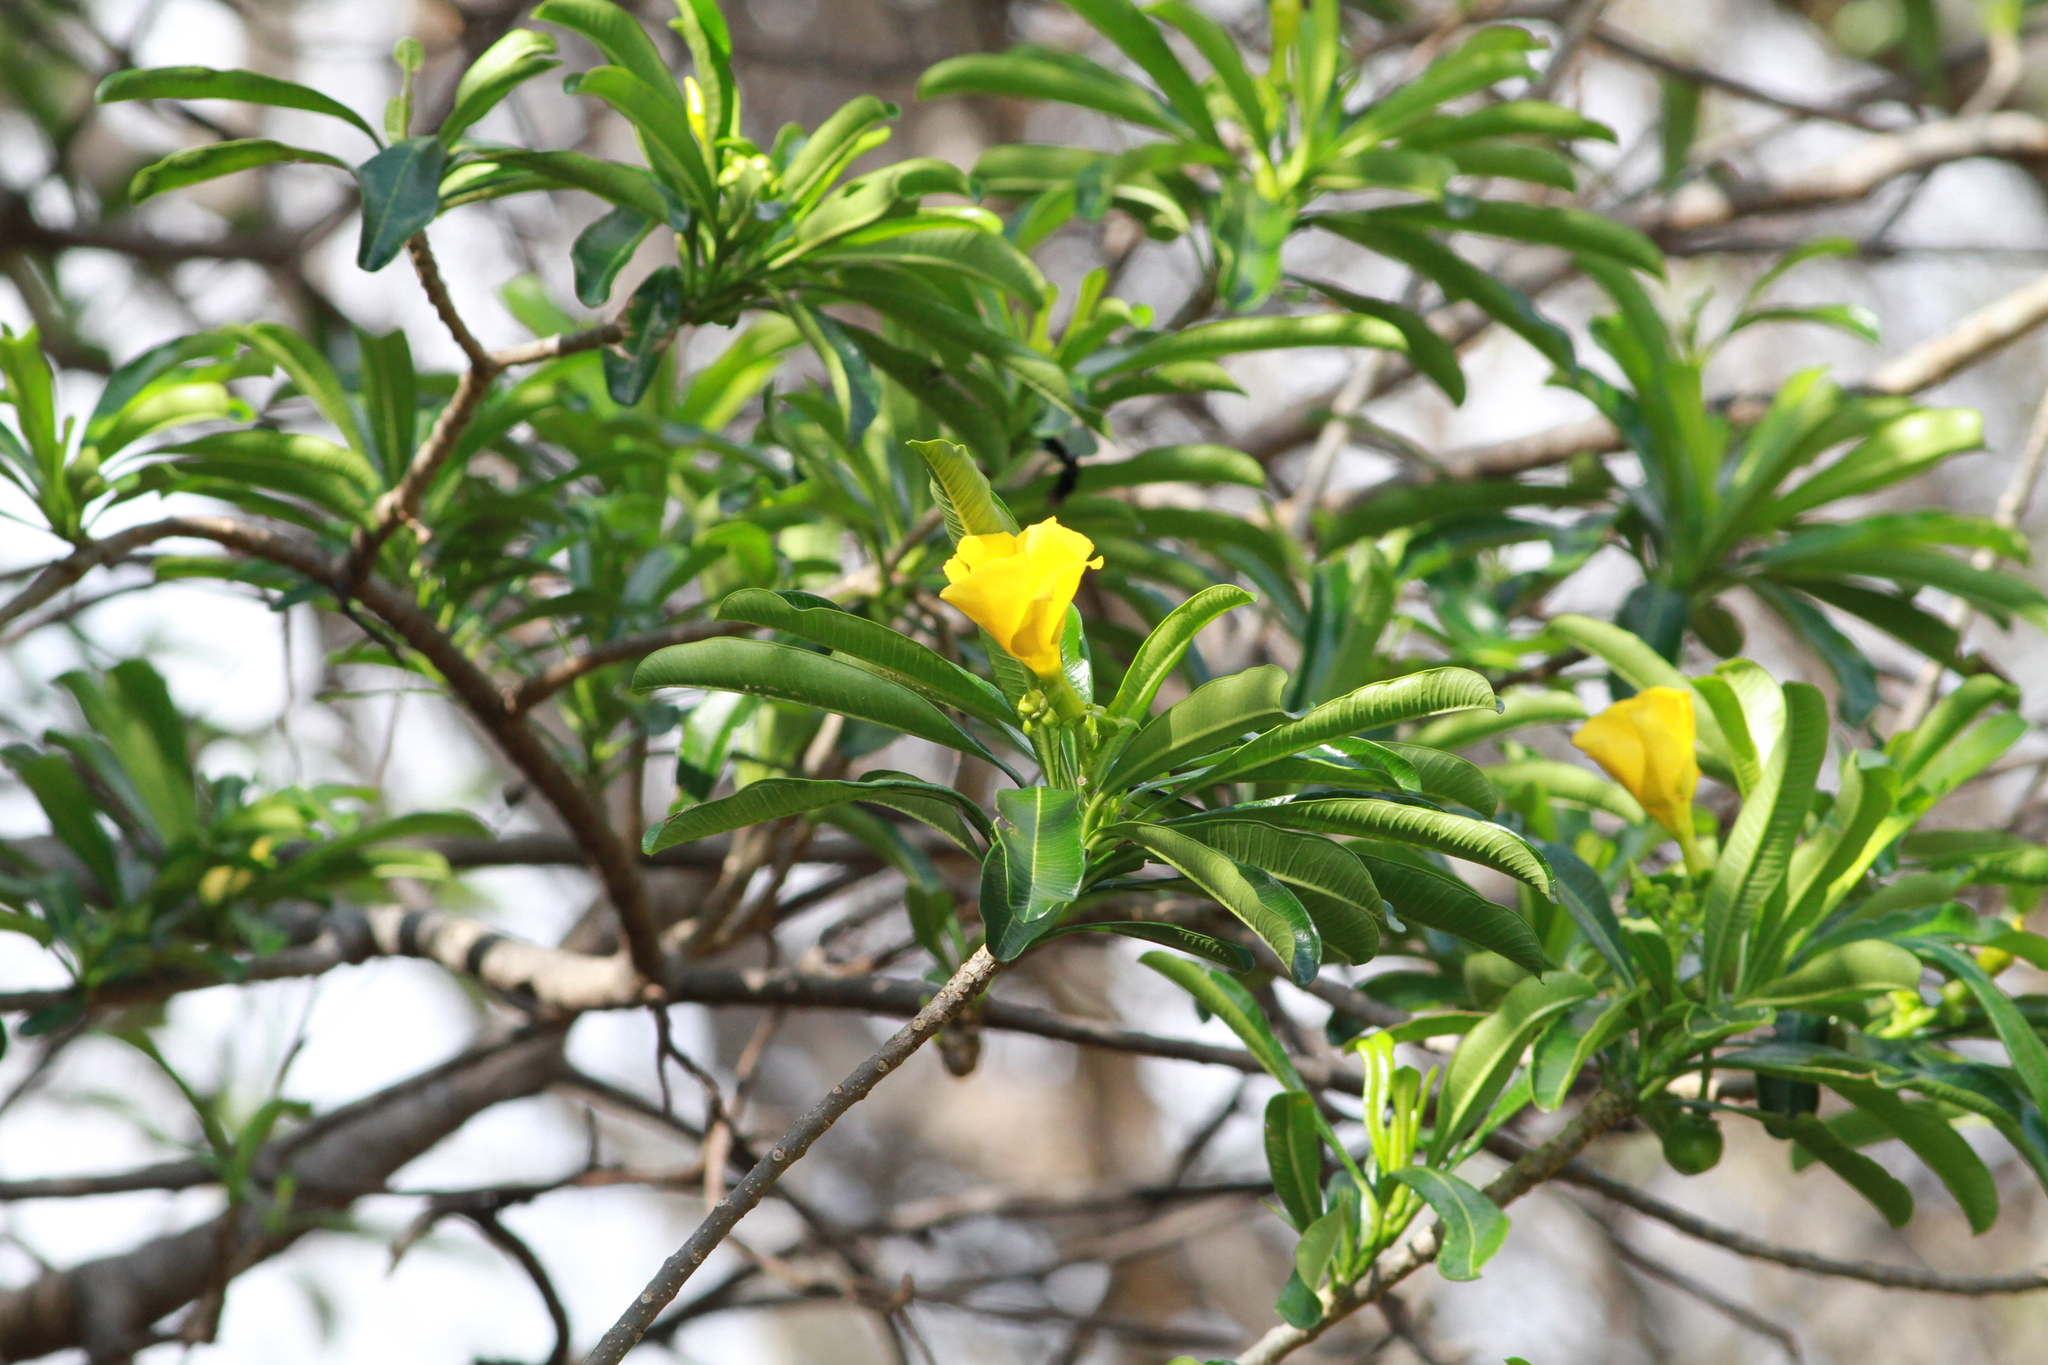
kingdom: Plantae
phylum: Tracheophyta
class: Magnoliopsida
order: Gentianales
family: Apocynaceae
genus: Cascabela
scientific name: Cascabela ovata
